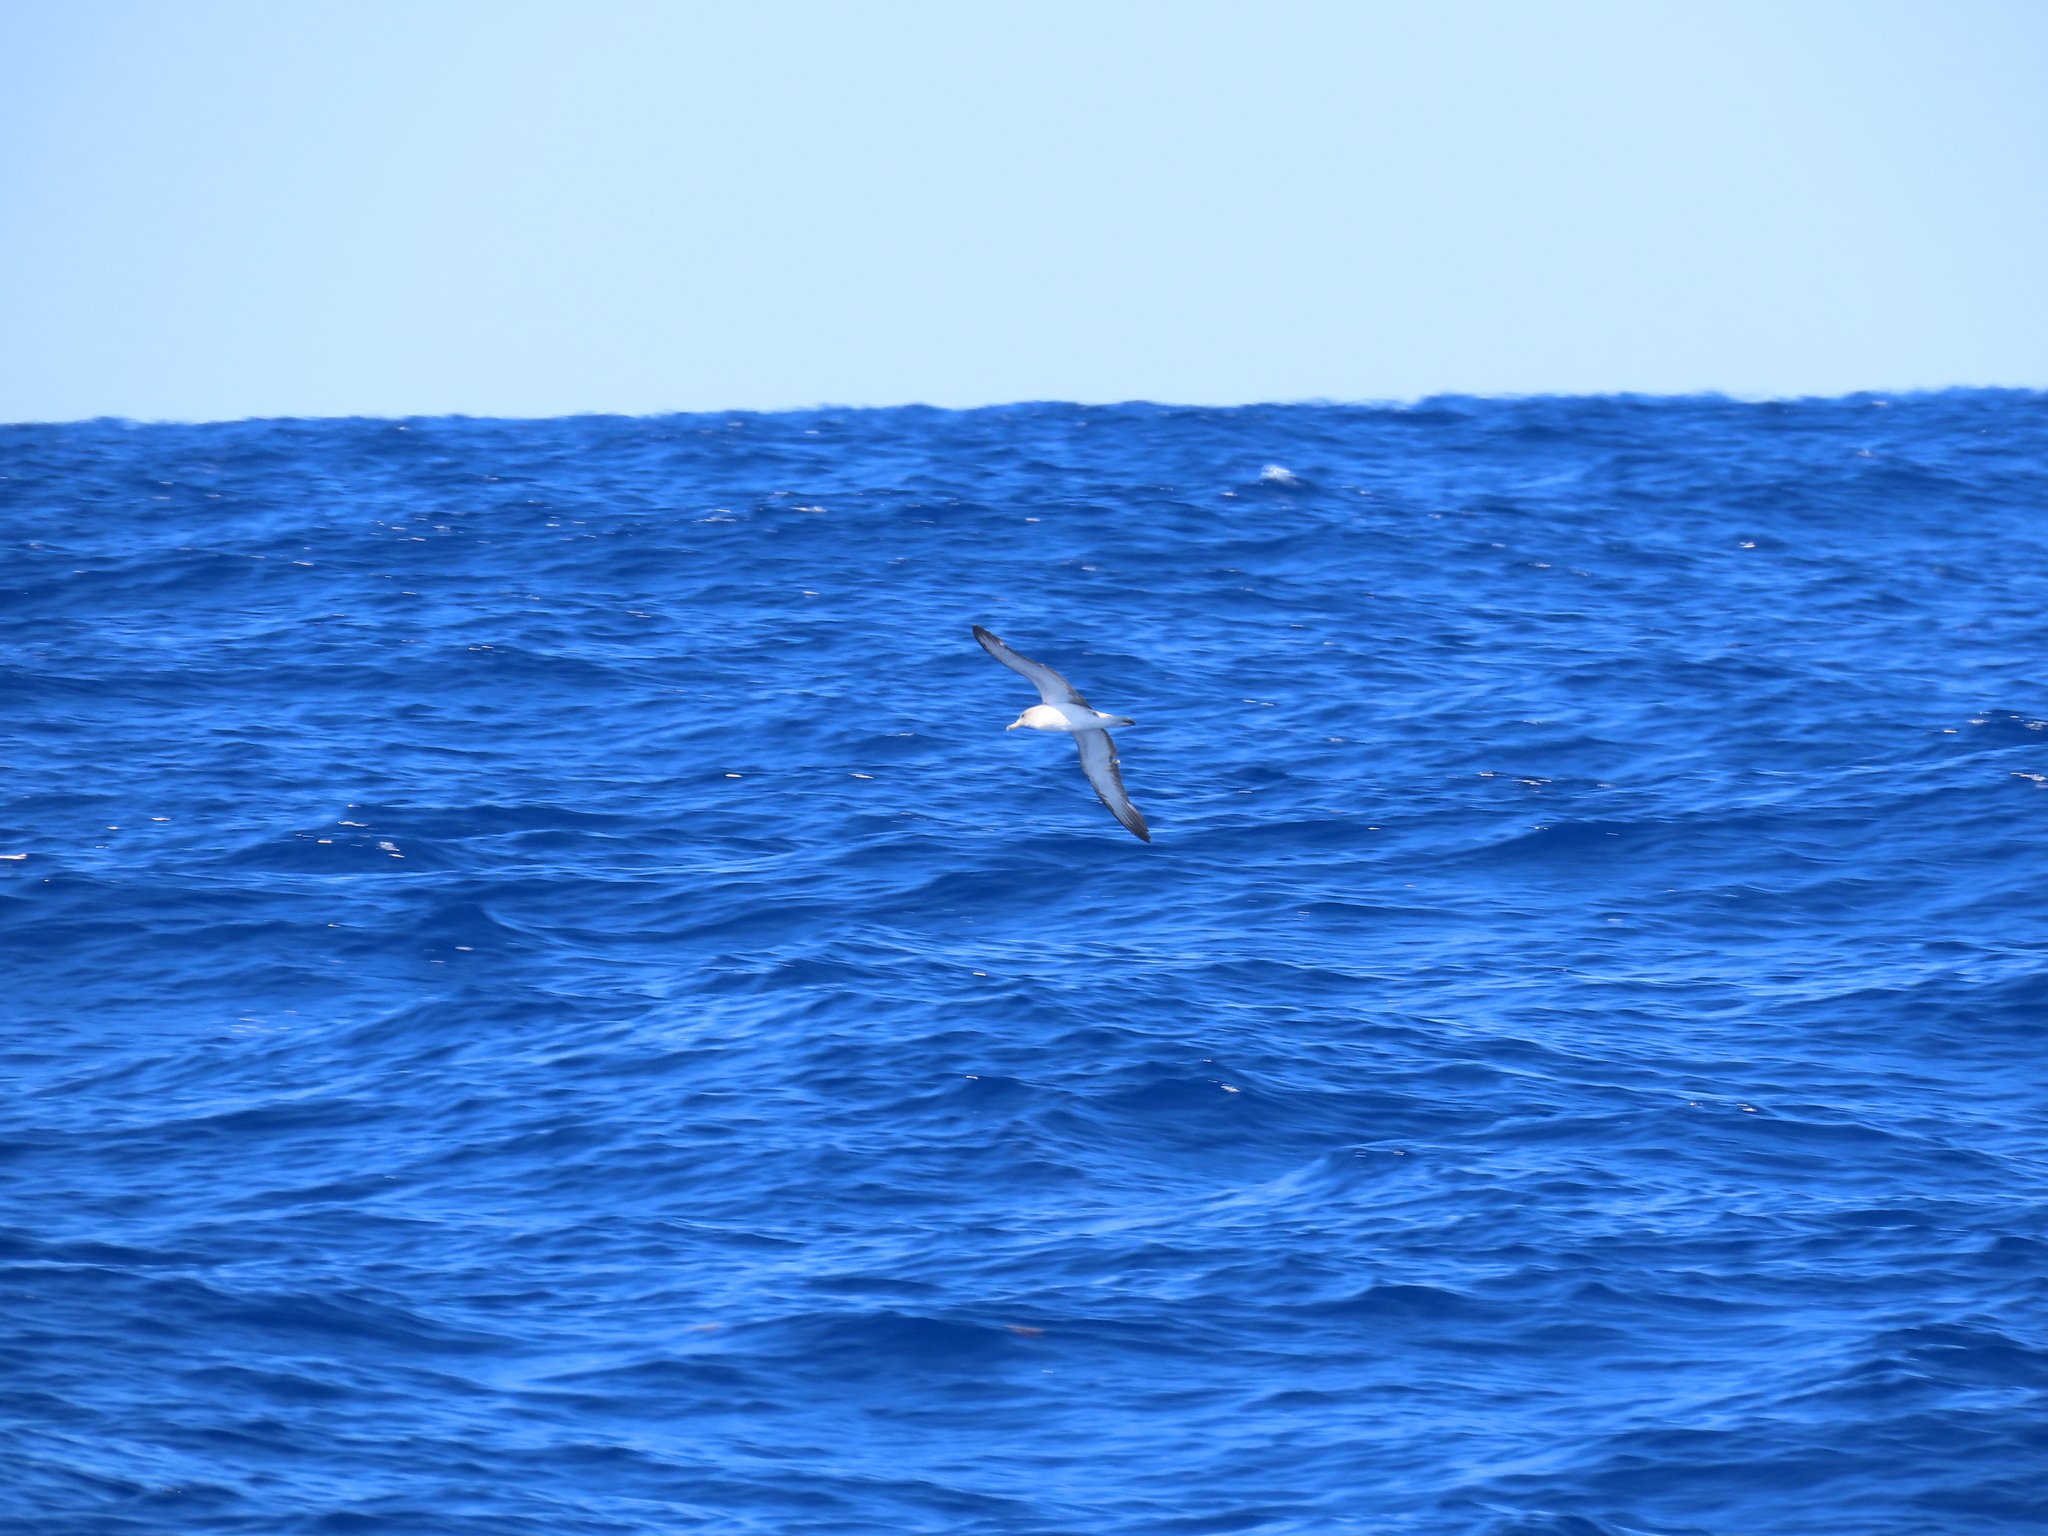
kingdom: Animalia
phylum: Chordata
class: Aves
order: Procellariiformes
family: Procellariidae
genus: Calonectris
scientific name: Calonectris diomedea
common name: Cory's shearwater
